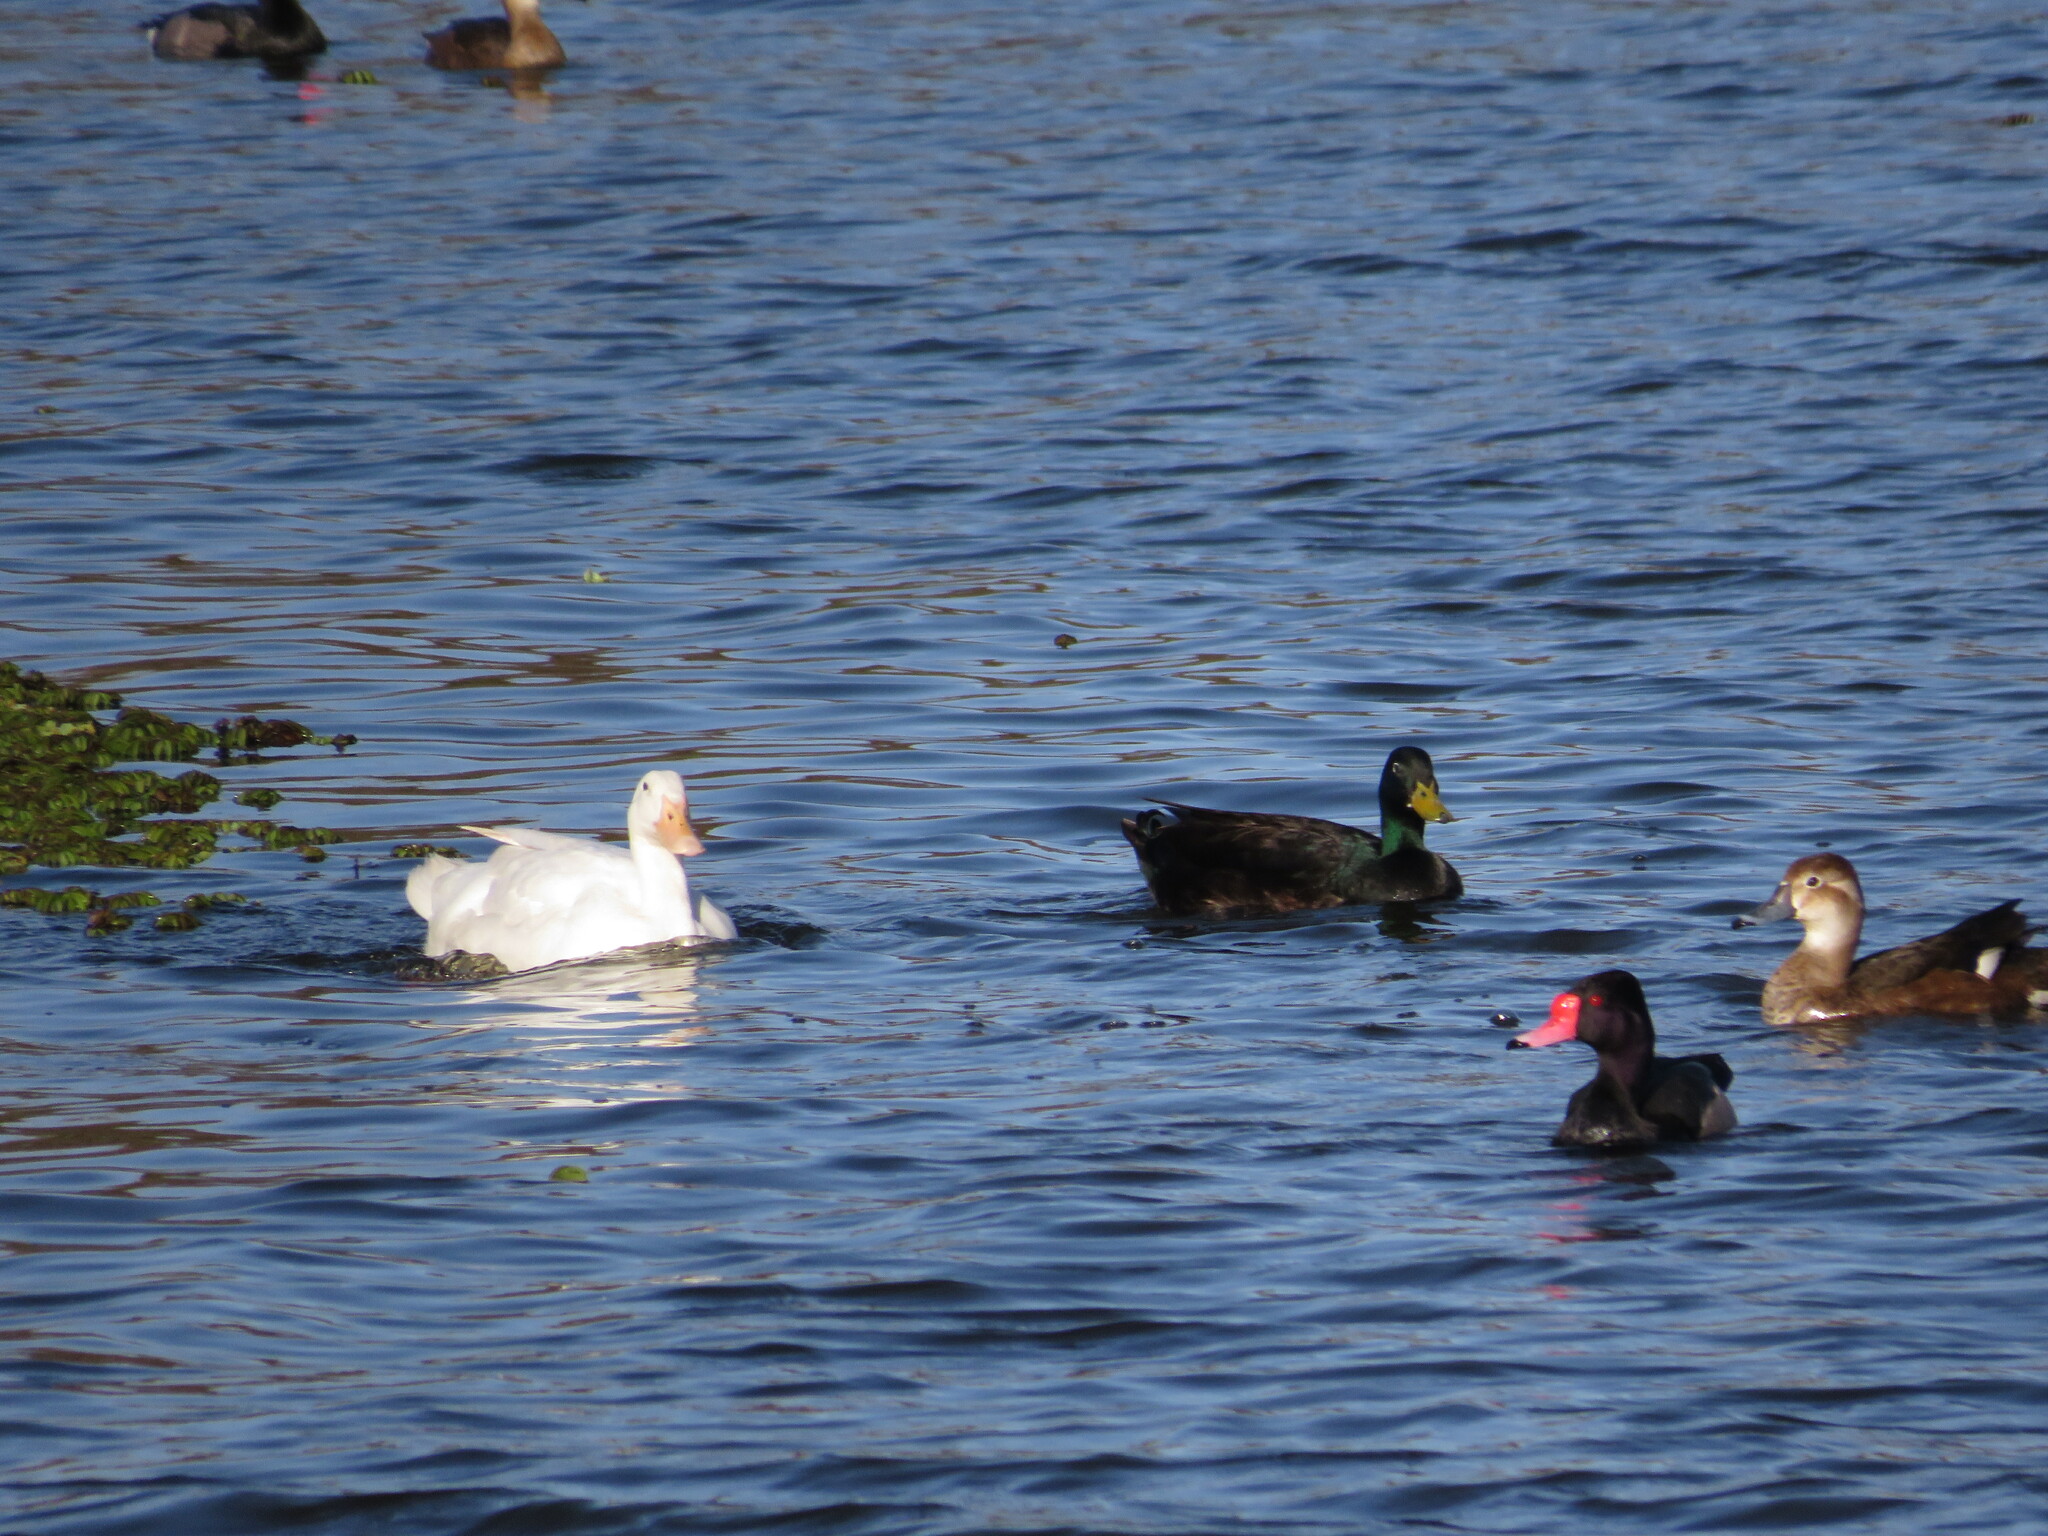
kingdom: Animalia
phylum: Chordata
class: Aves
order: Anseriformes
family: Anatidae
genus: Anas
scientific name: Anas platyrhynchos
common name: Mallard
